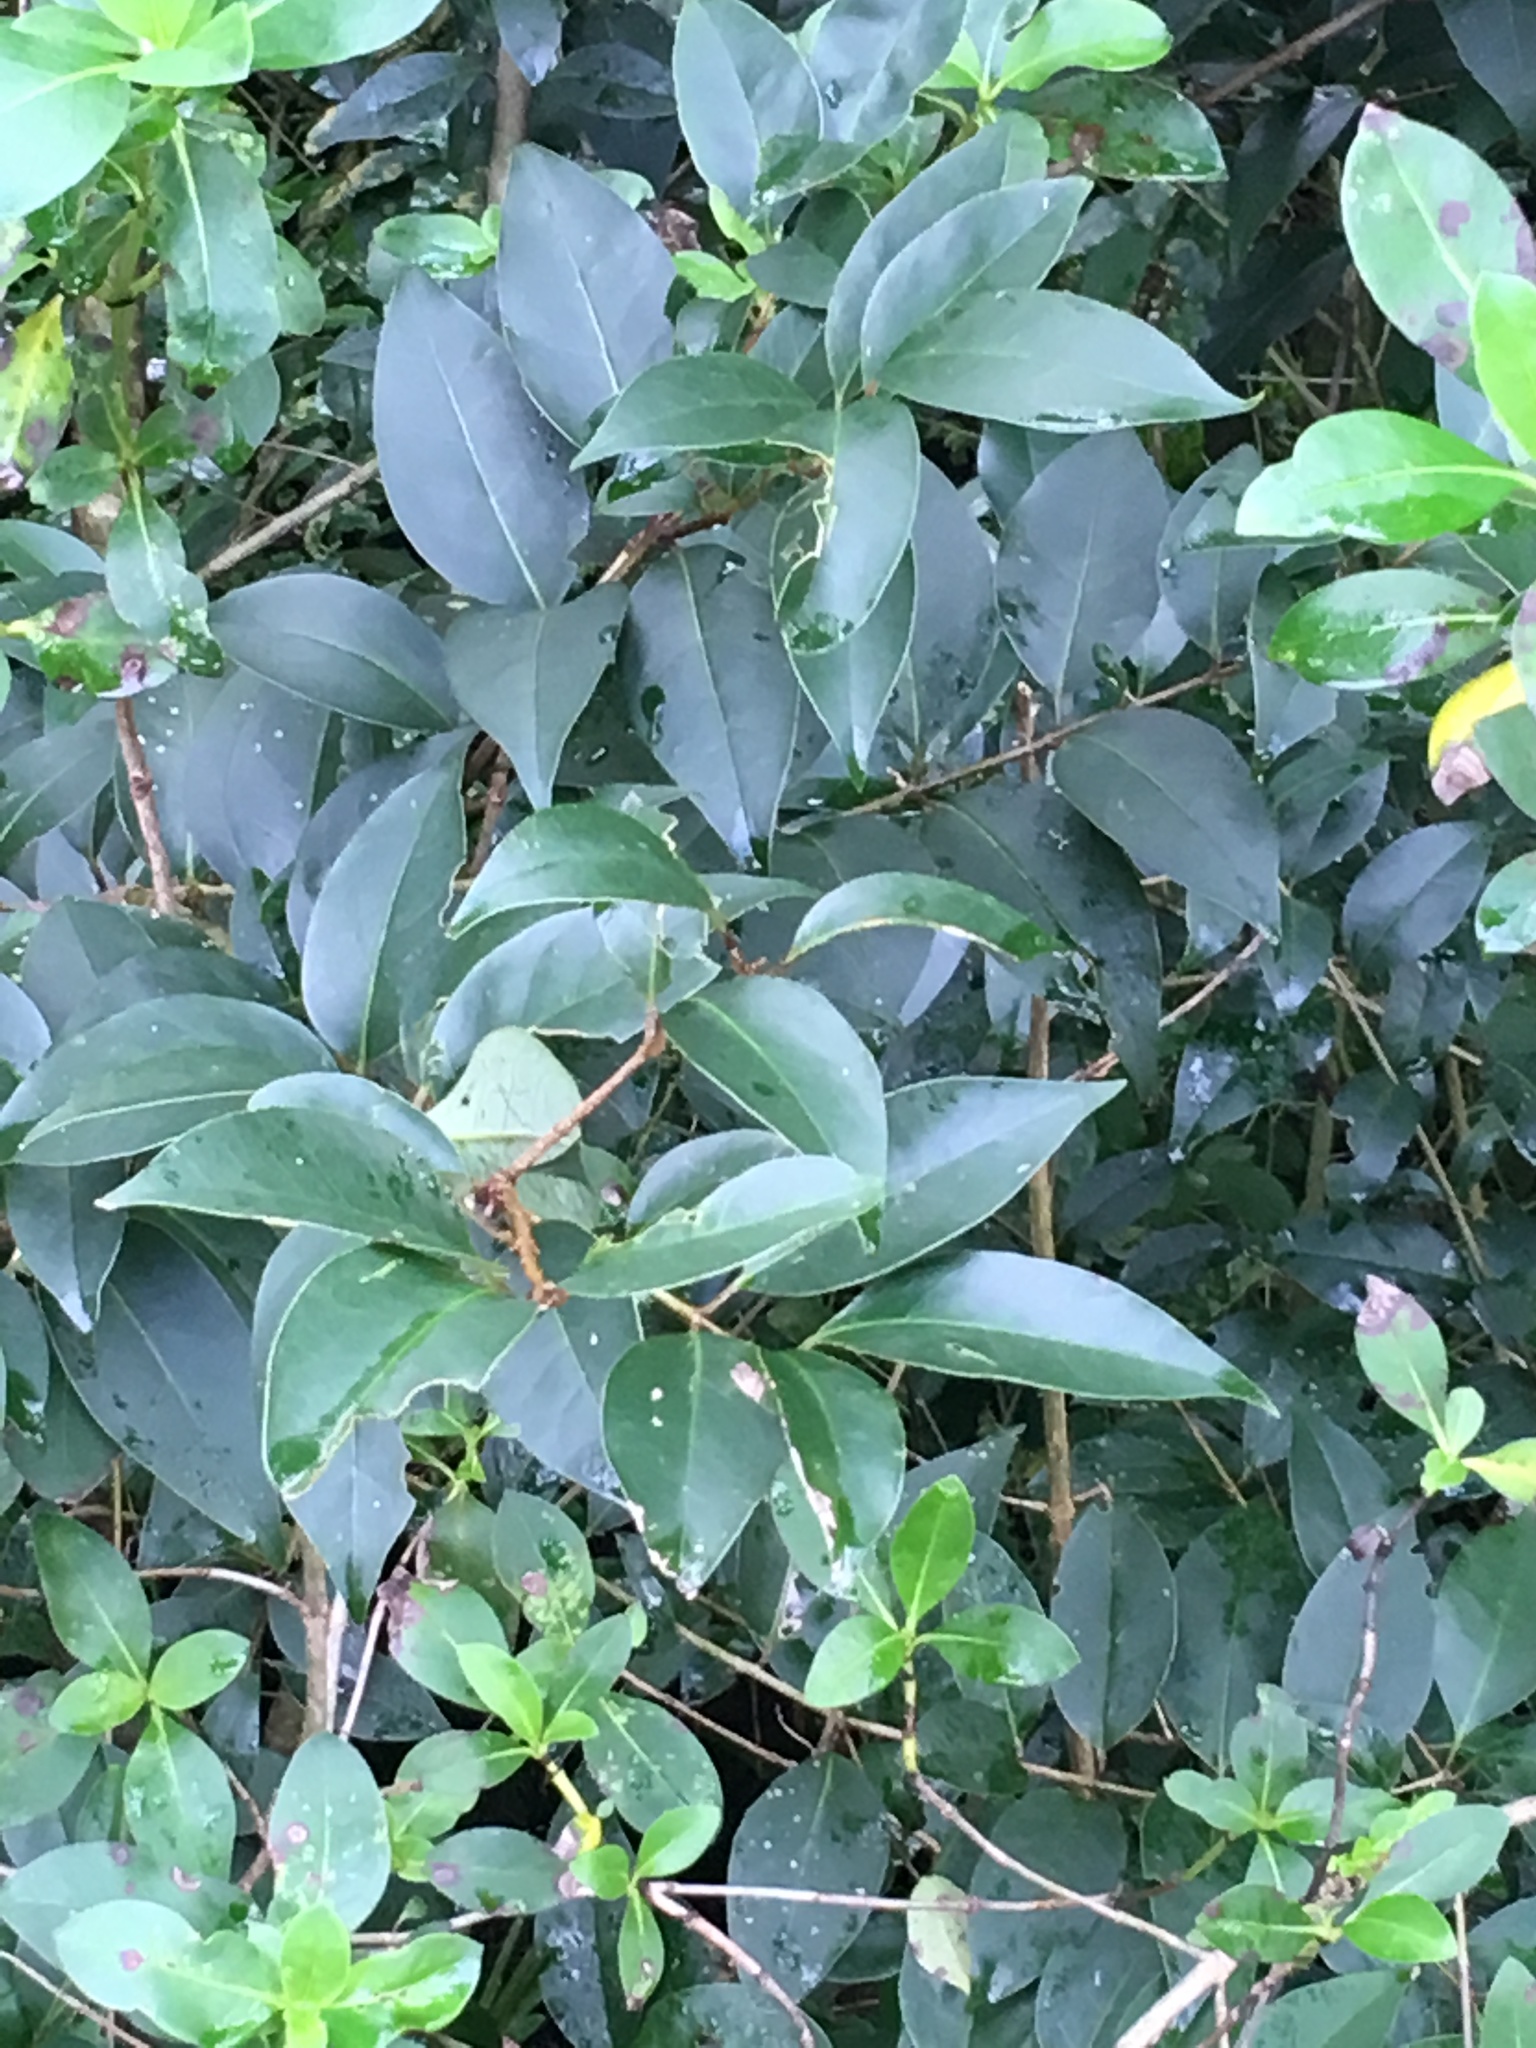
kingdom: Plantae
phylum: Tracheophyta
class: Magnoliopsida
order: Lamiales
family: Oleaceae
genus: Ligustrum
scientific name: Ligustrum lucidum
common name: Glossy privet
